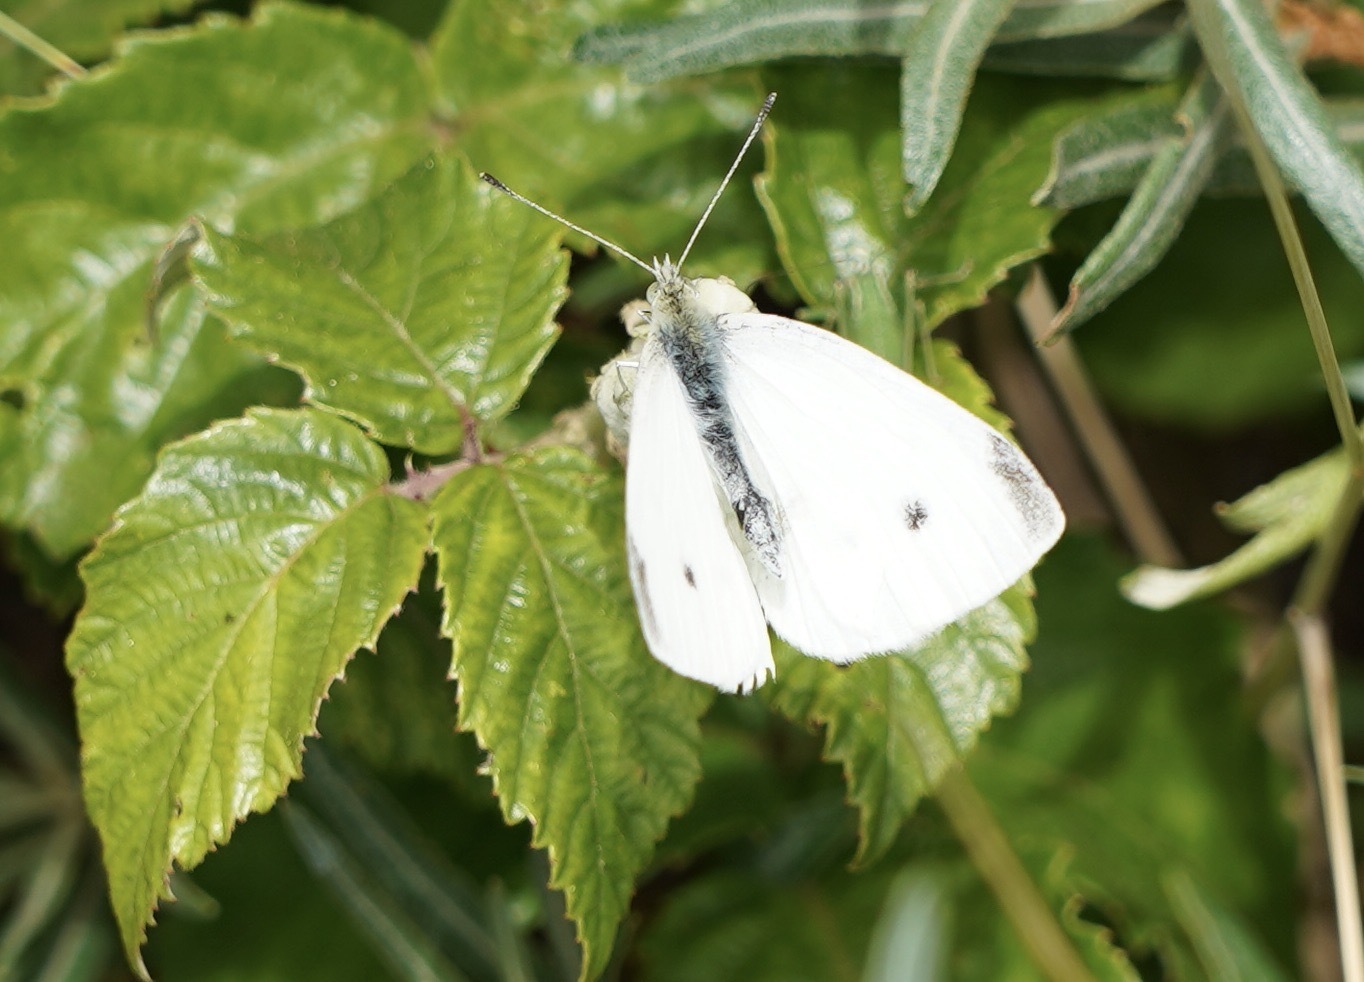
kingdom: Animalia
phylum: Arthropoda
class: Insecta
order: Lepidoptera
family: Pieridae
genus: Pieris
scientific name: Pieris rapae
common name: Small white
